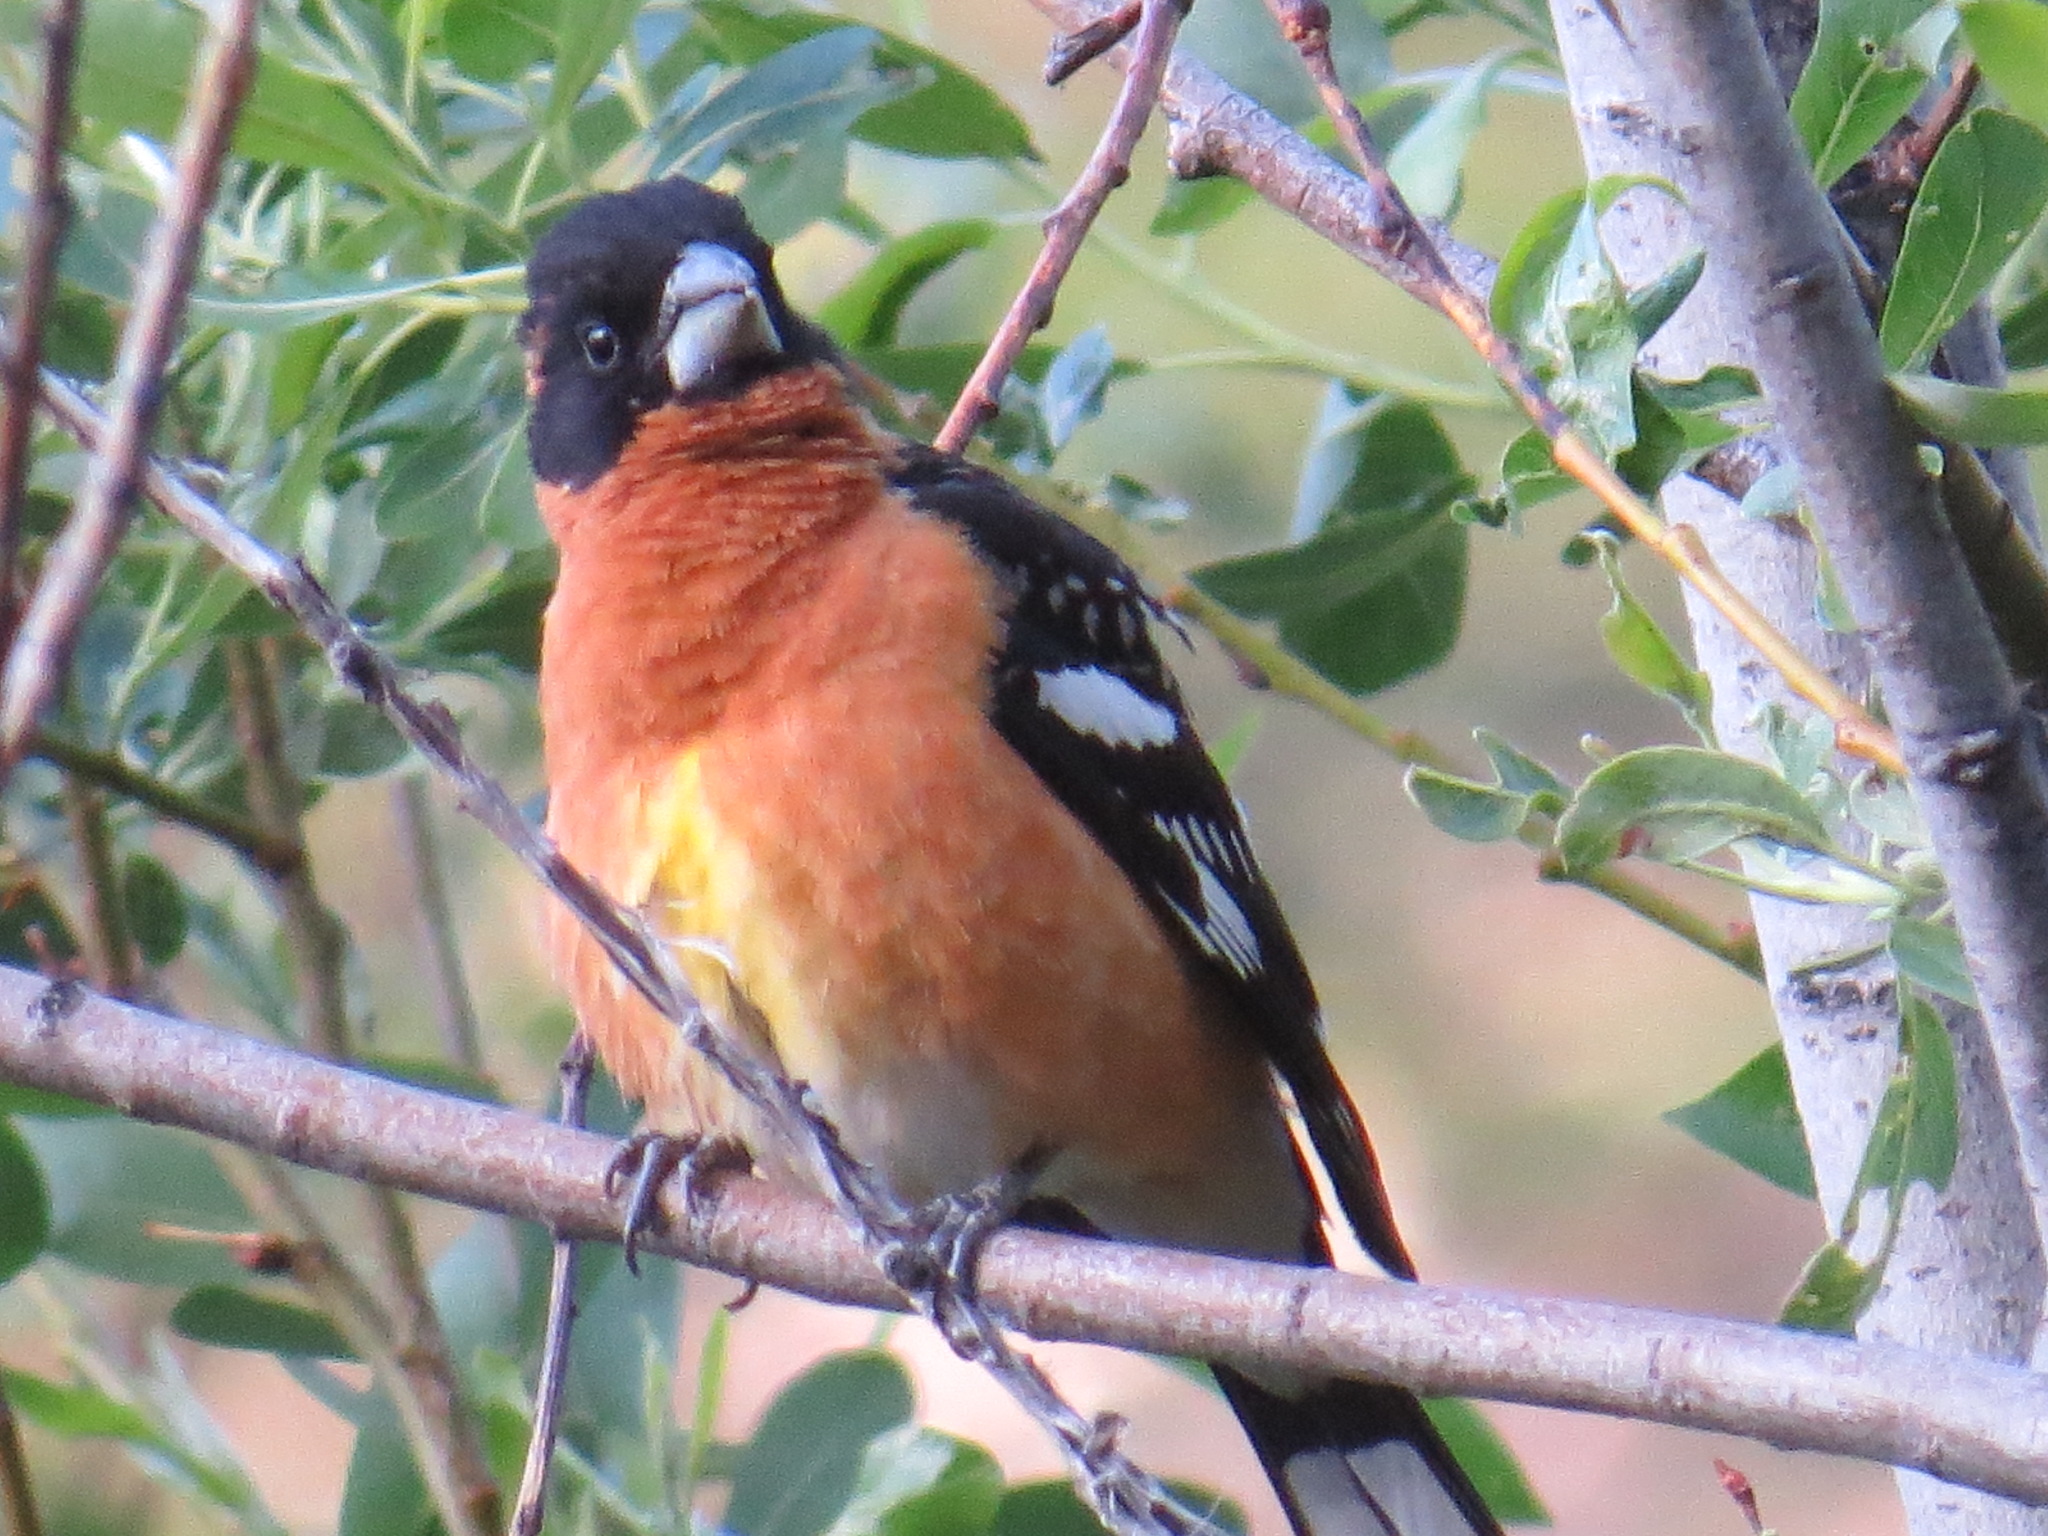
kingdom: Animalia
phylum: Chordata
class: Aves
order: Passeriformes
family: Cardinalidae
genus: Pheucticus
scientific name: Pheucticus melanocephalus
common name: Black-headed grosbeak
